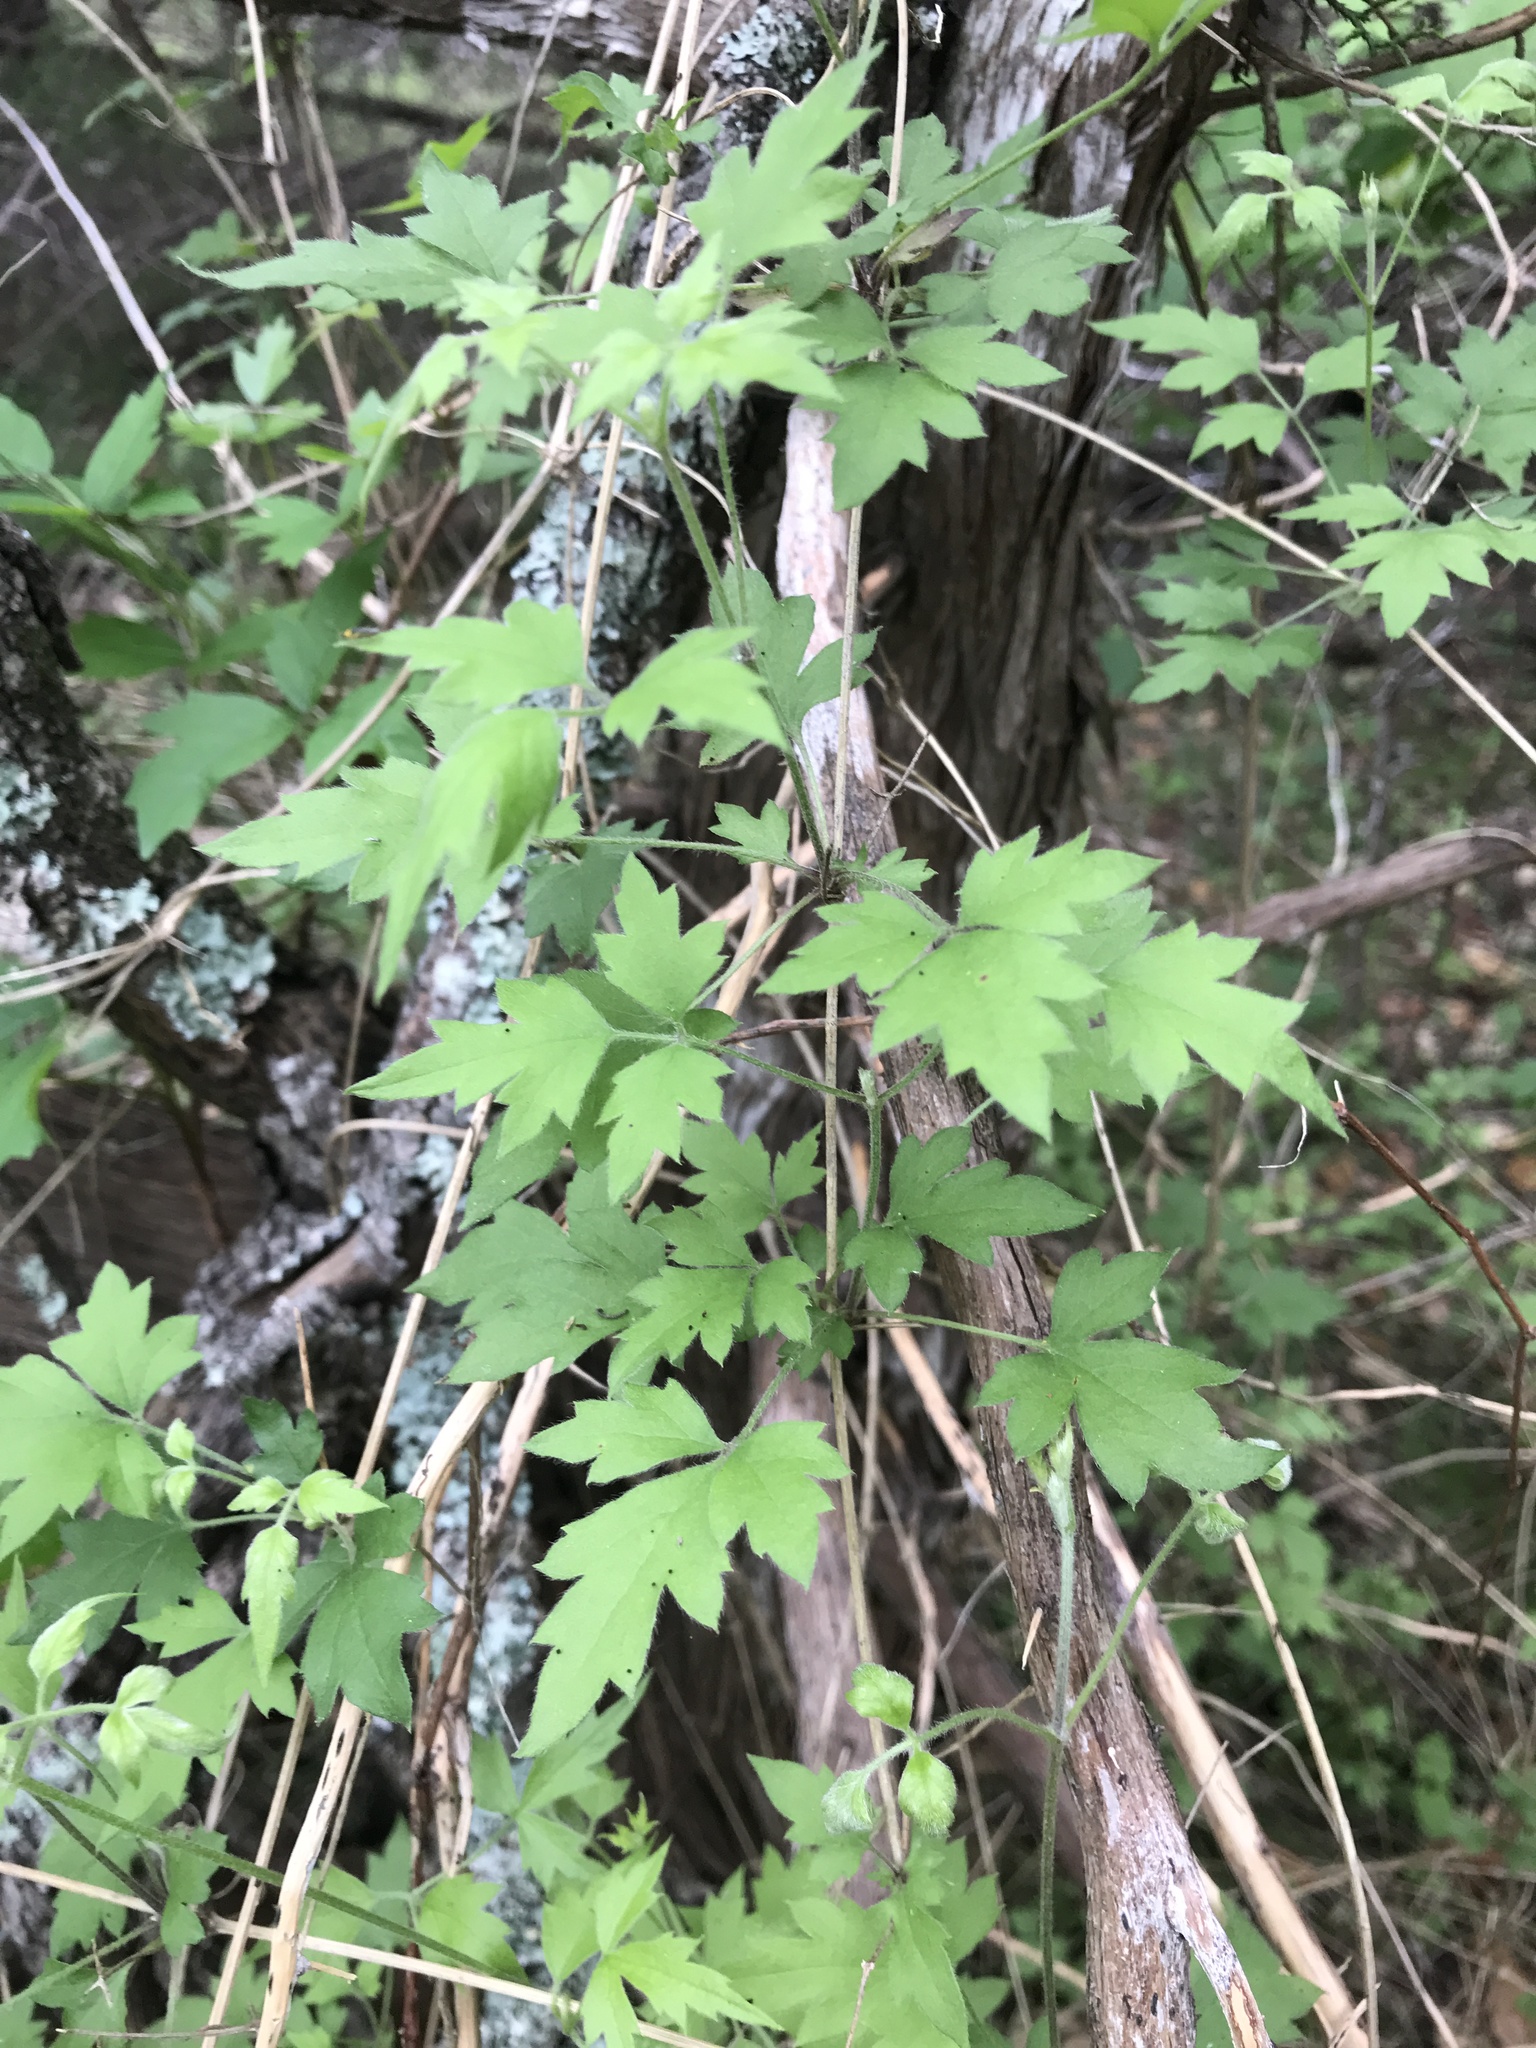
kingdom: Plantae
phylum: Tracheophyta
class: Magnoliopsida
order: Ranunculales
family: Ranunculaceae
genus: Clematis
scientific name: Clematis drummondii
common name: Texas virgin's bower
